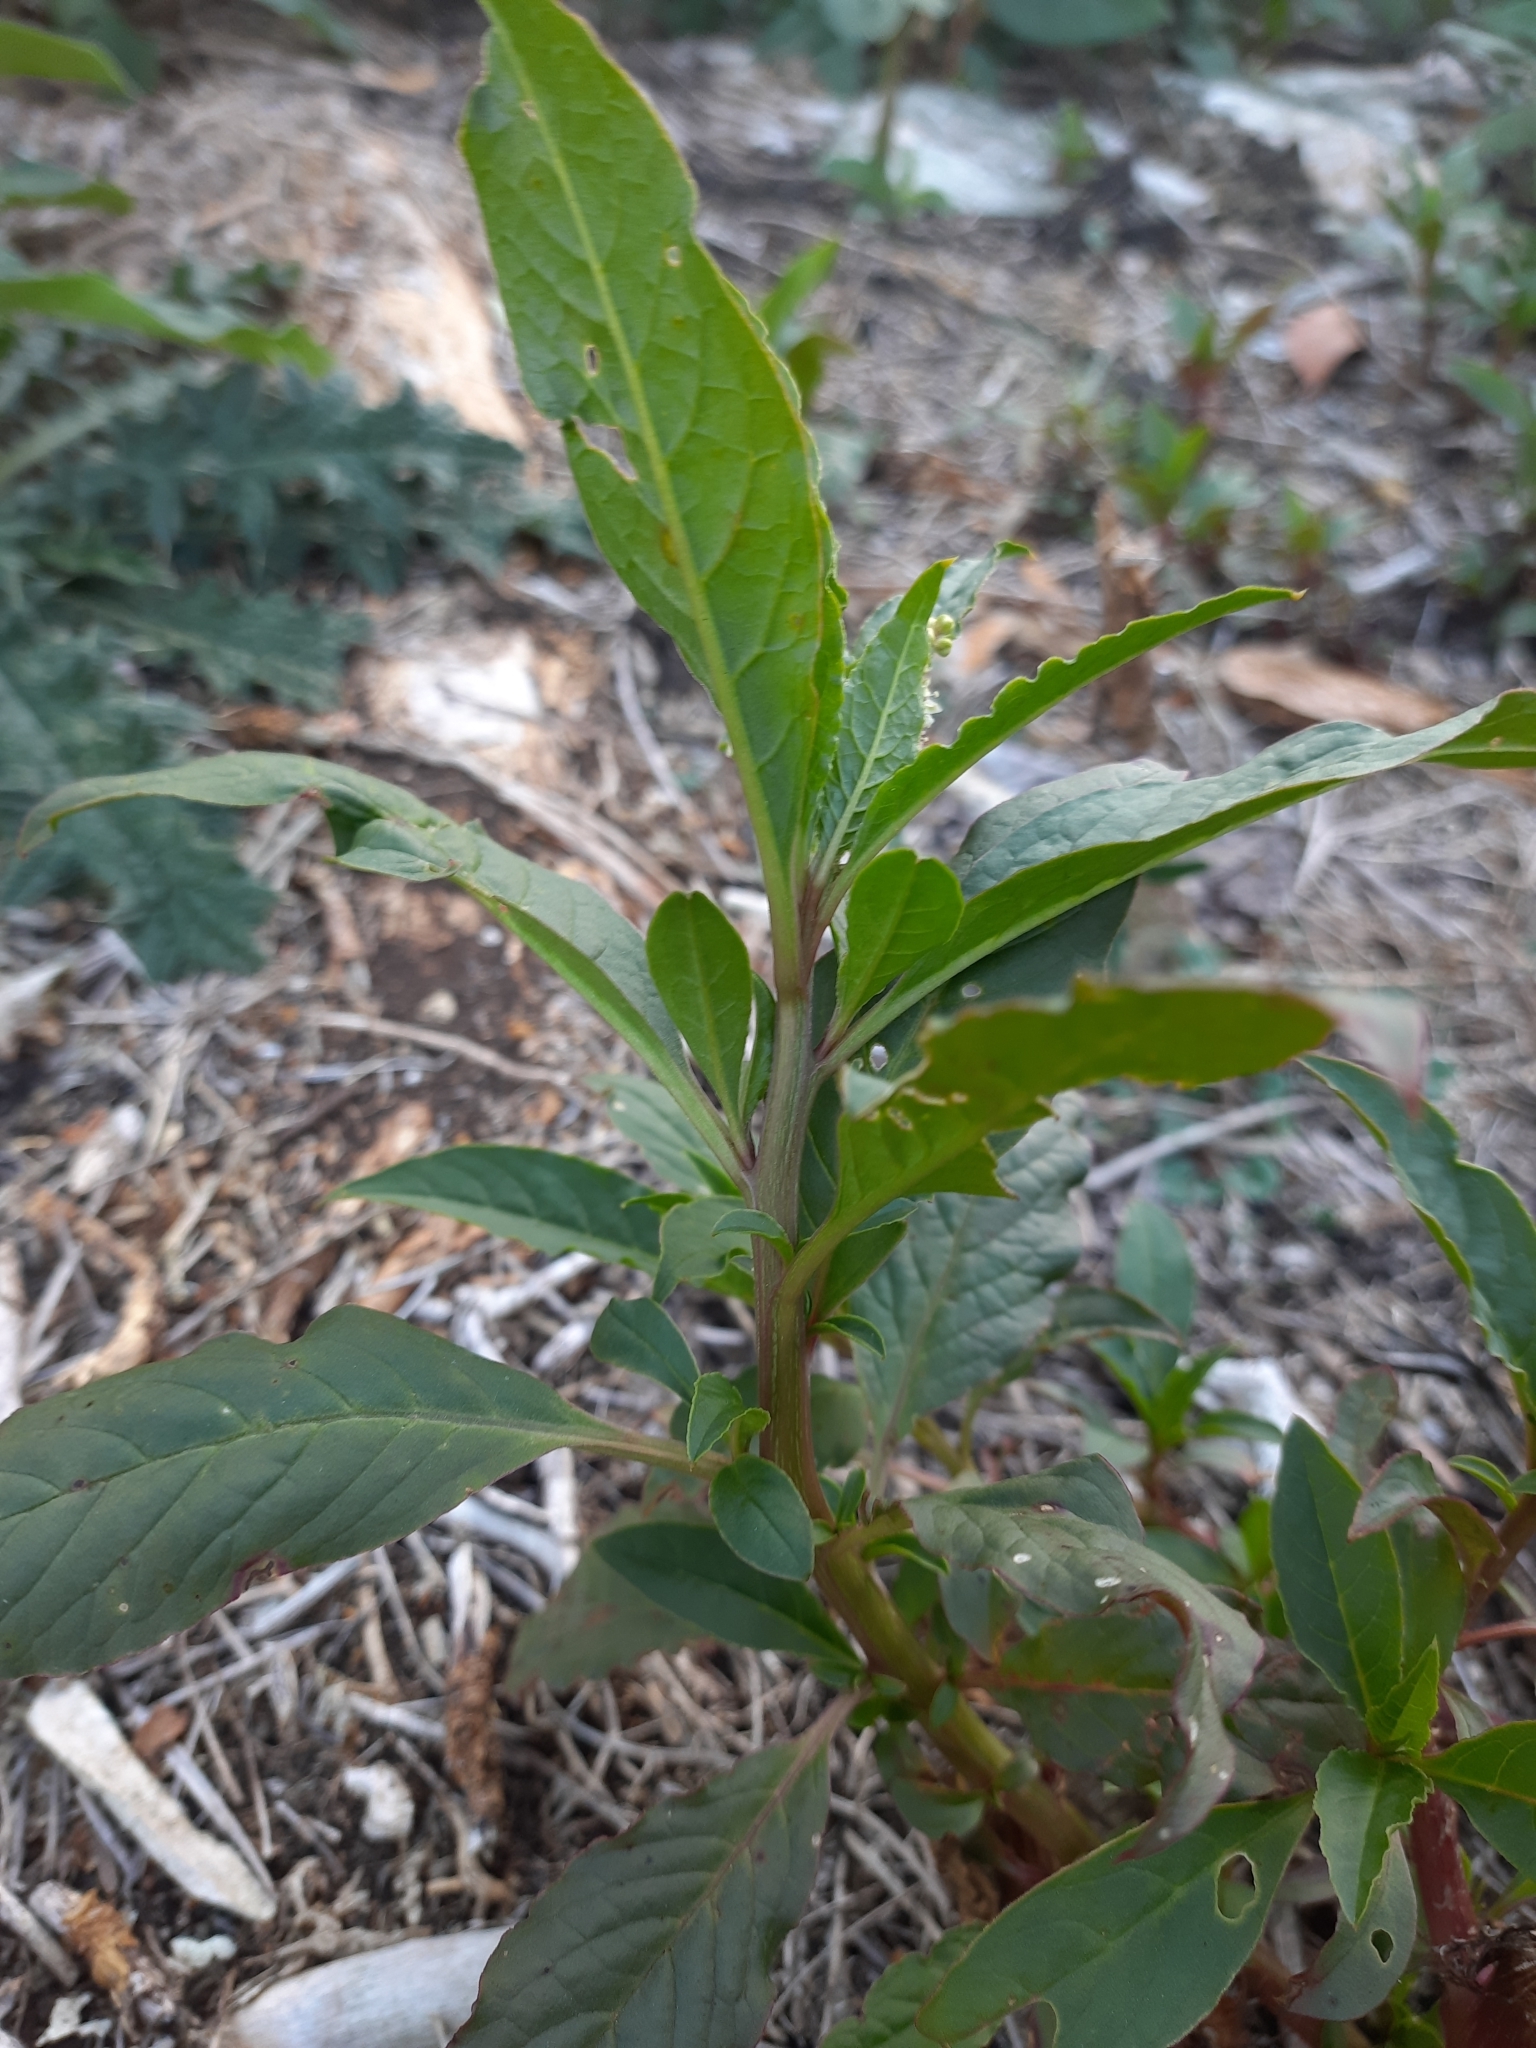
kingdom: Plantae
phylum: Tracheophyta
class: Magnoliopsida
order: Caryophyllales
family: Phytolaccaceae
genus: Phytolacca
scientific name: Phytolacca icosandra
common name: Button pokeweed
